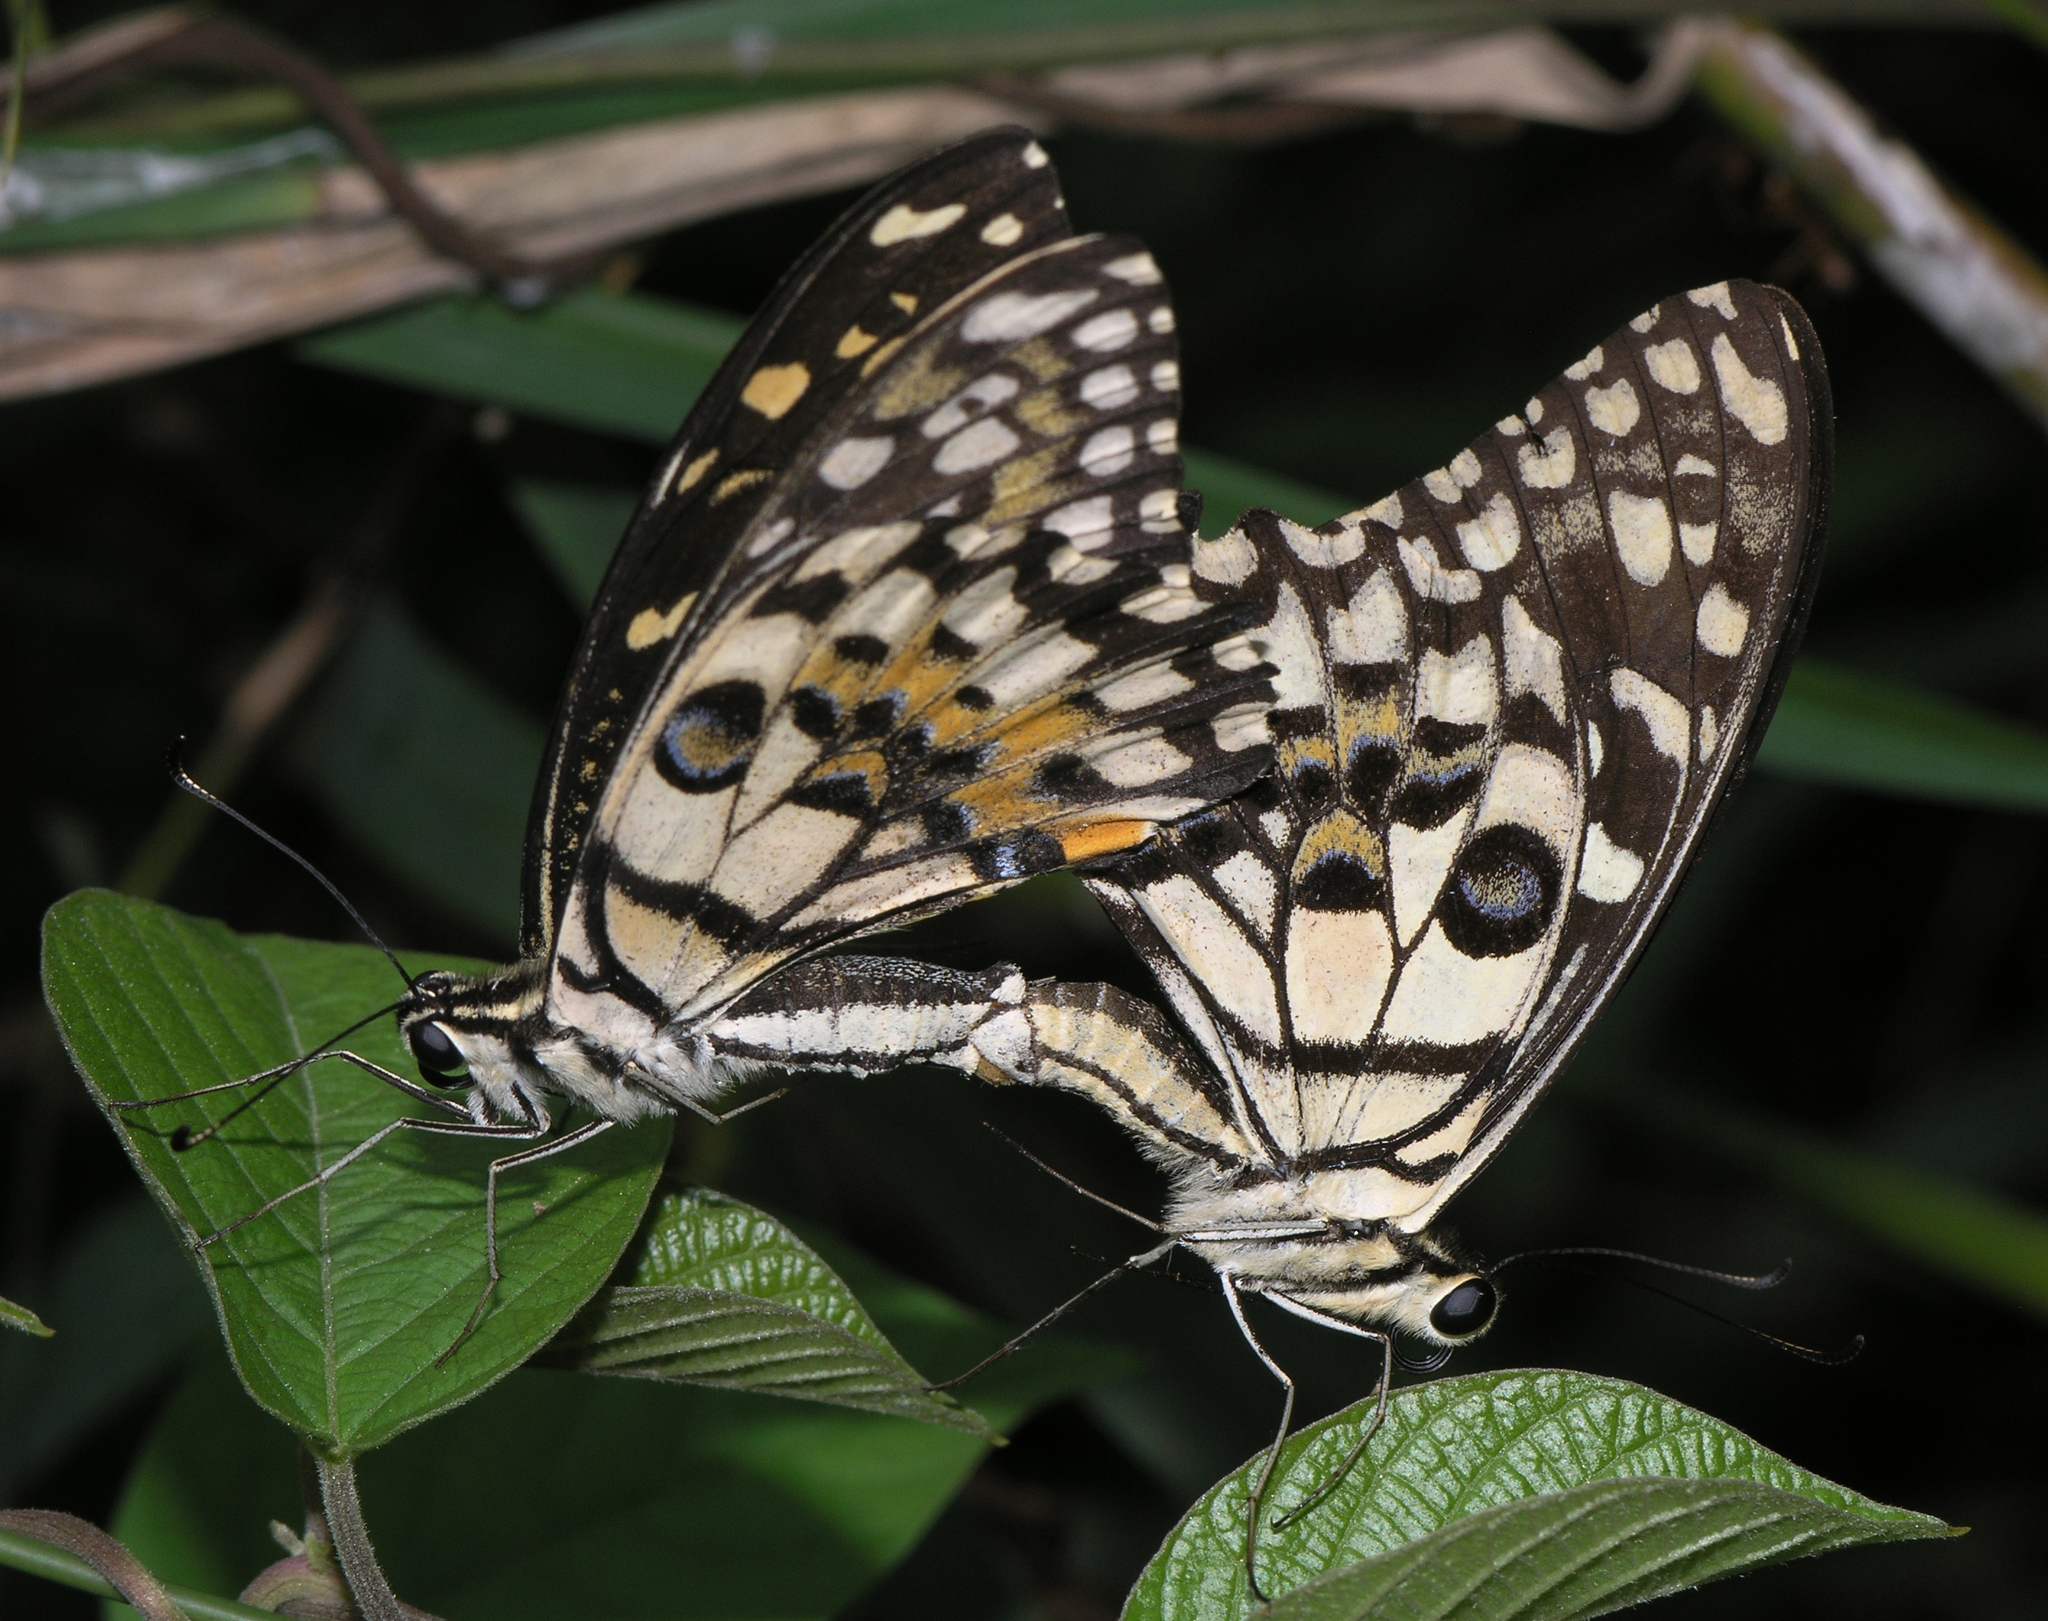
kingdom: Animalia
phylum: Arthropoda
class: Insecta
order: Lepidoptera
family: Papilionidae
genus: Papilio
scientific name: Papilio demoleus
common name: Lime butterfly
